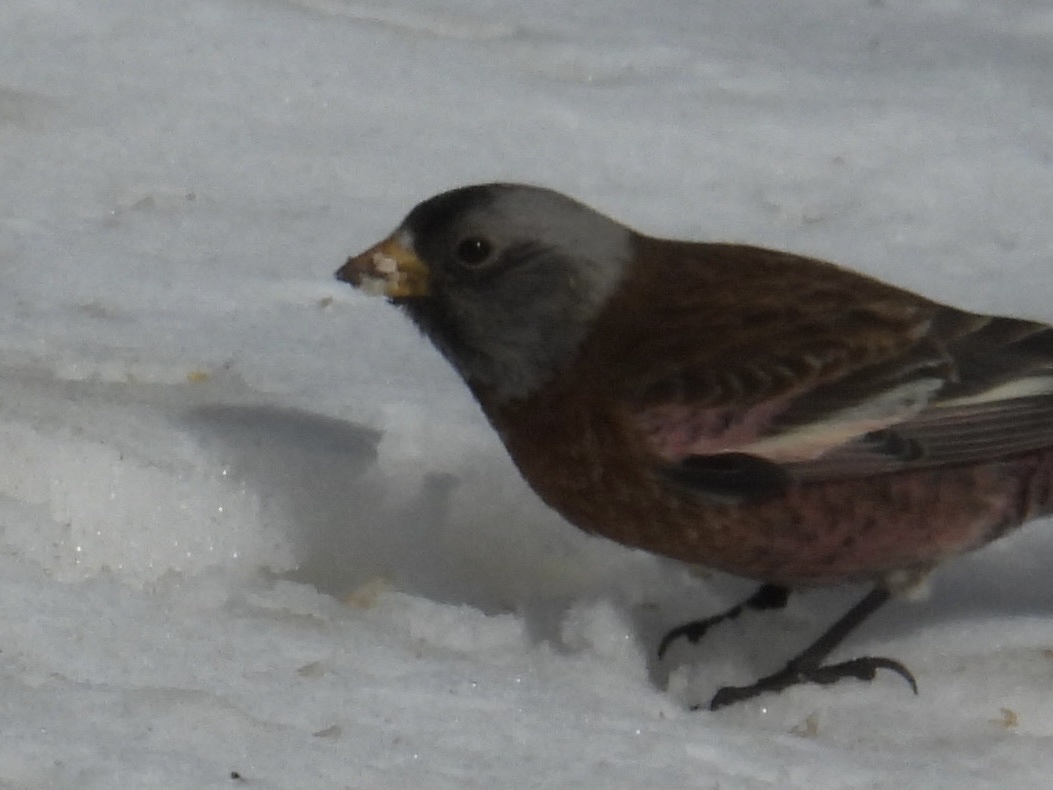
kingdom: Animalia
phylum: Chordata
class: Aves
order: Passeriformes
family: Fringillidae
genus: Leucosticte
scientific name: Leucosticte tephrocotis
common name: Gray-crowned rosy-finch
